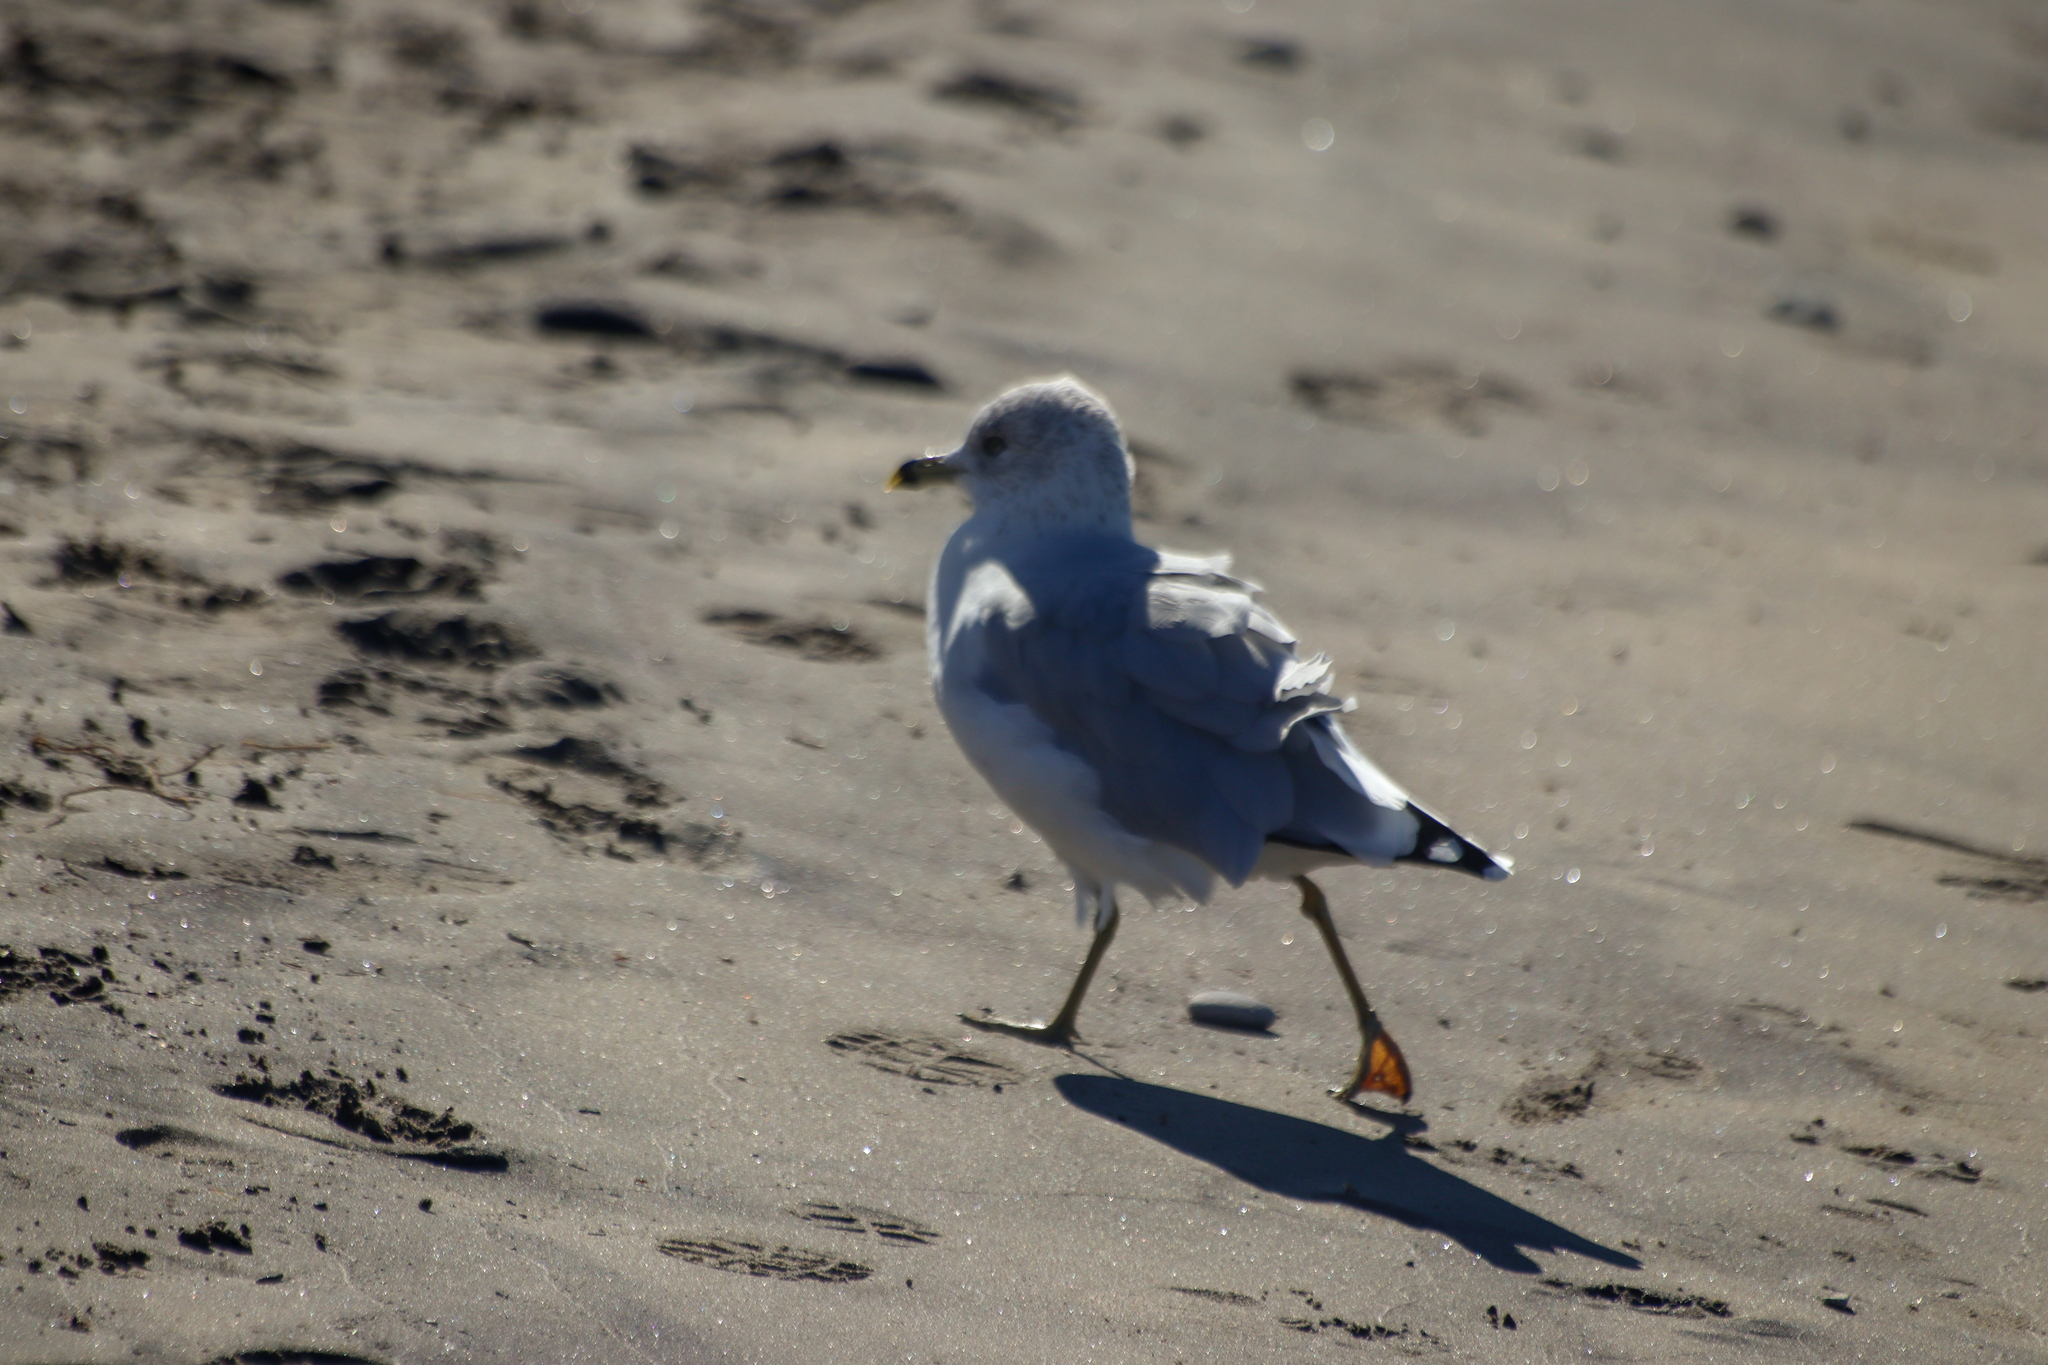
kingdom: Animalia
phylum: Chordata
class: Aves
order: Charadriiformes
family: Laridae
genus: Larus
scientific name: Larus delawarensis
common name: Ring-billed gull
